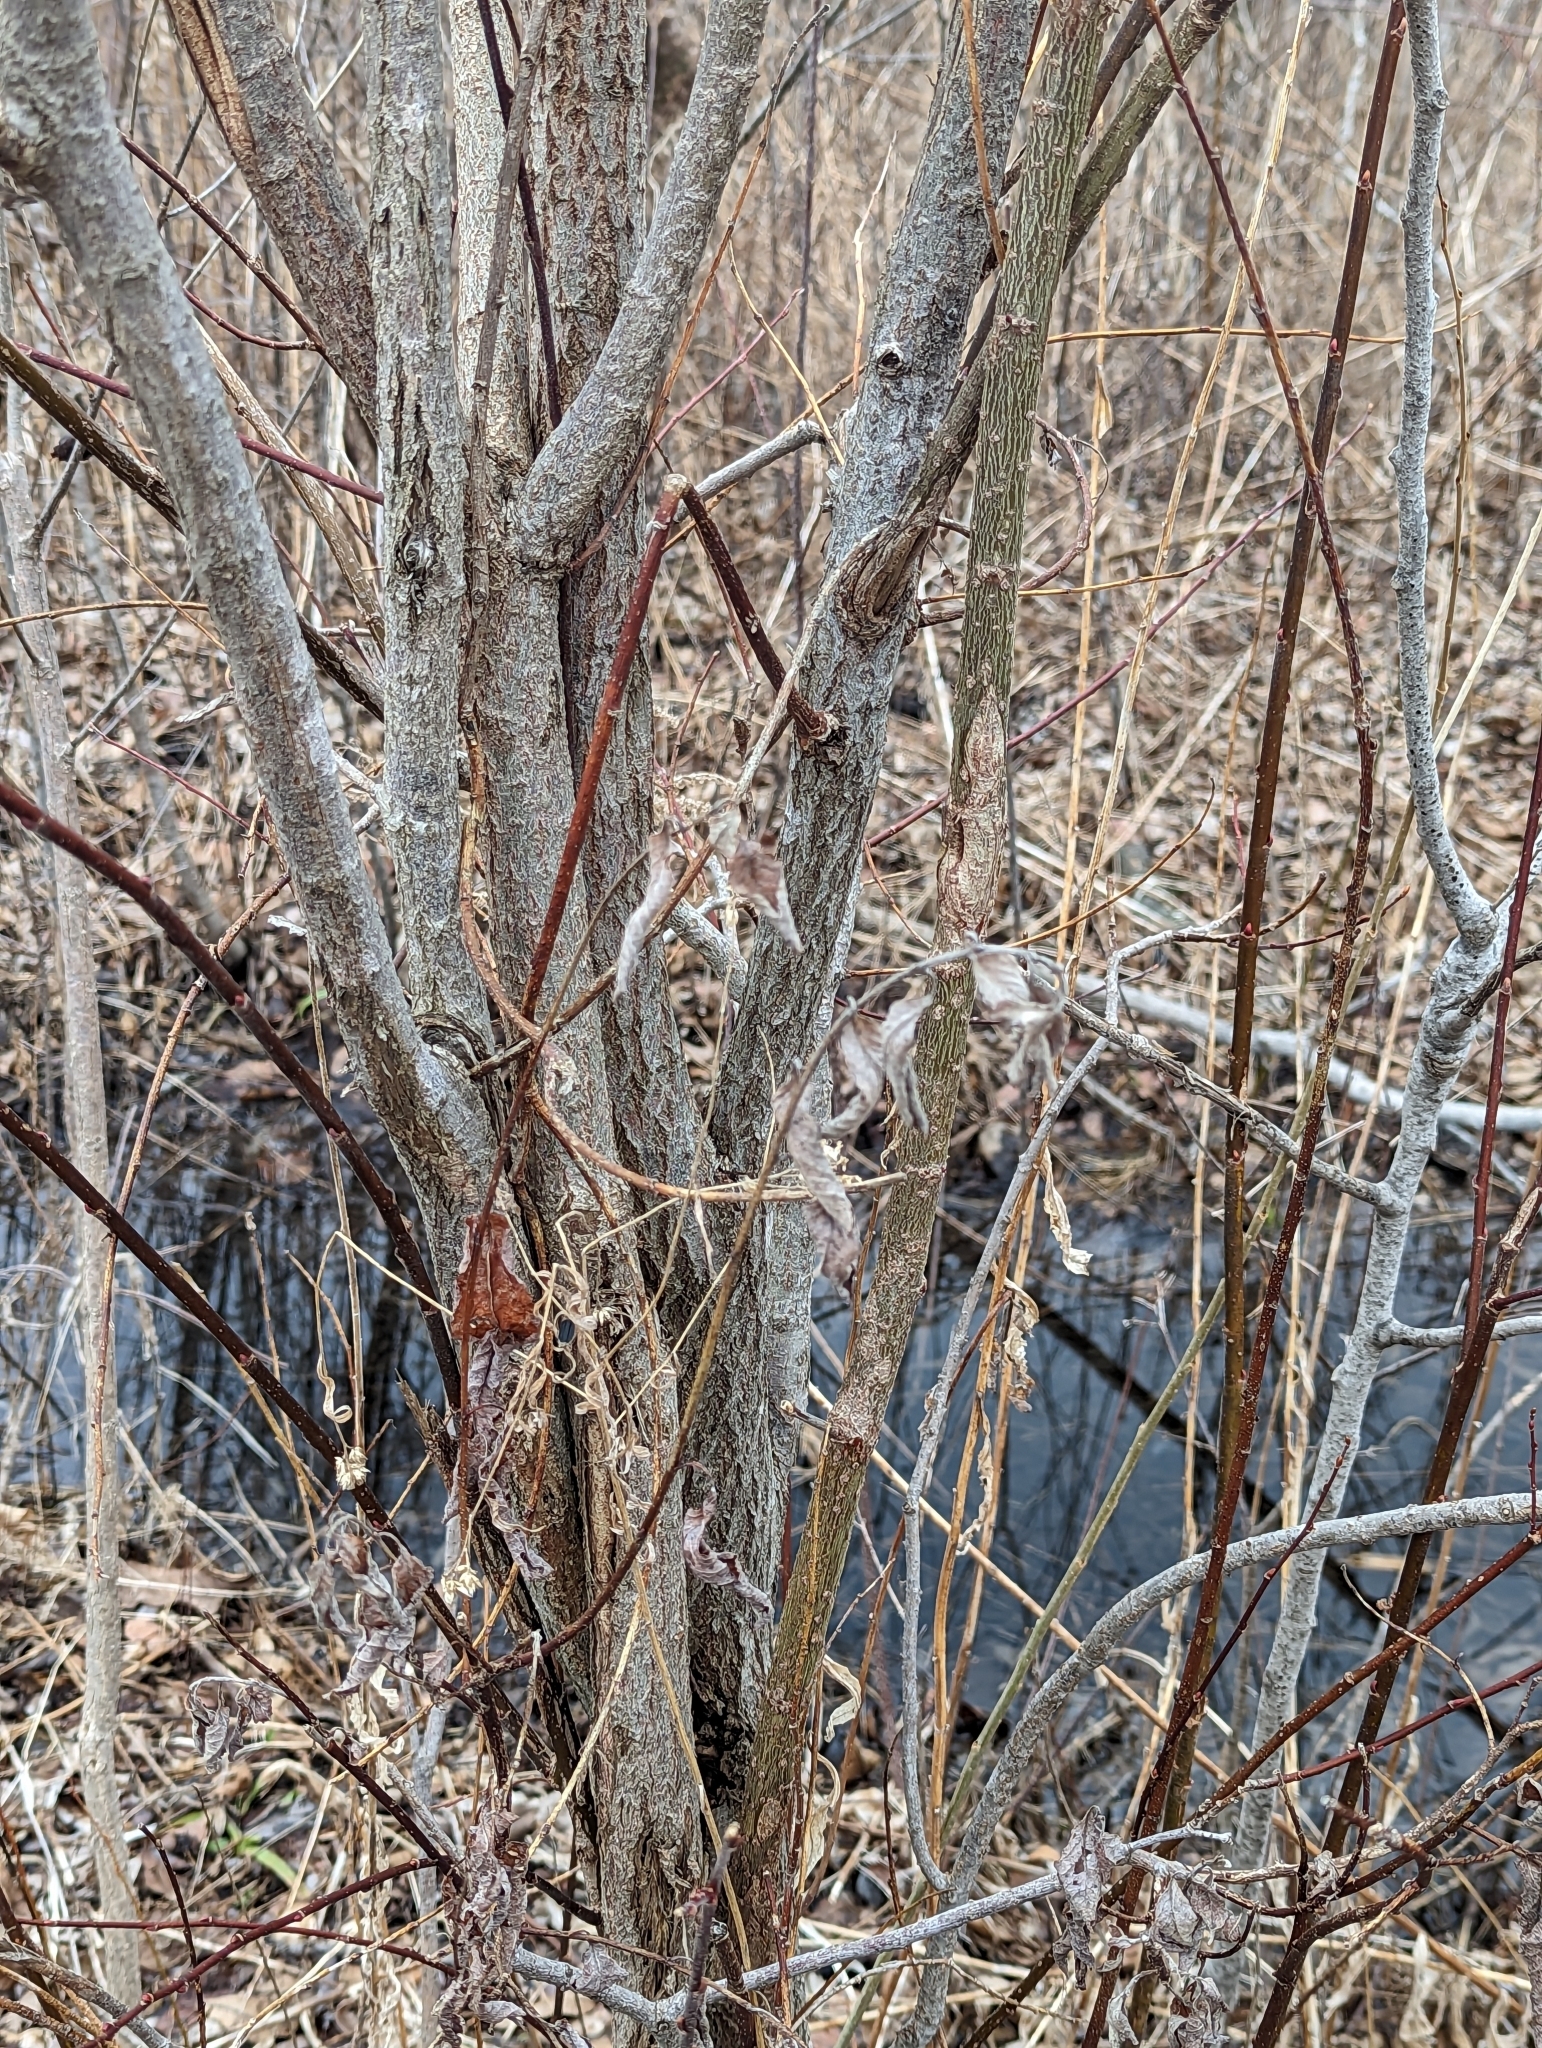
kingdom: Animalia
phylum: Arthropoda
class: Insecta
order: Diptera
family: Cecidomyiidae
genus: Rabdophaga
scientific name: Rabdophaga strobiloides
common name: Willow pinecone gall midge
